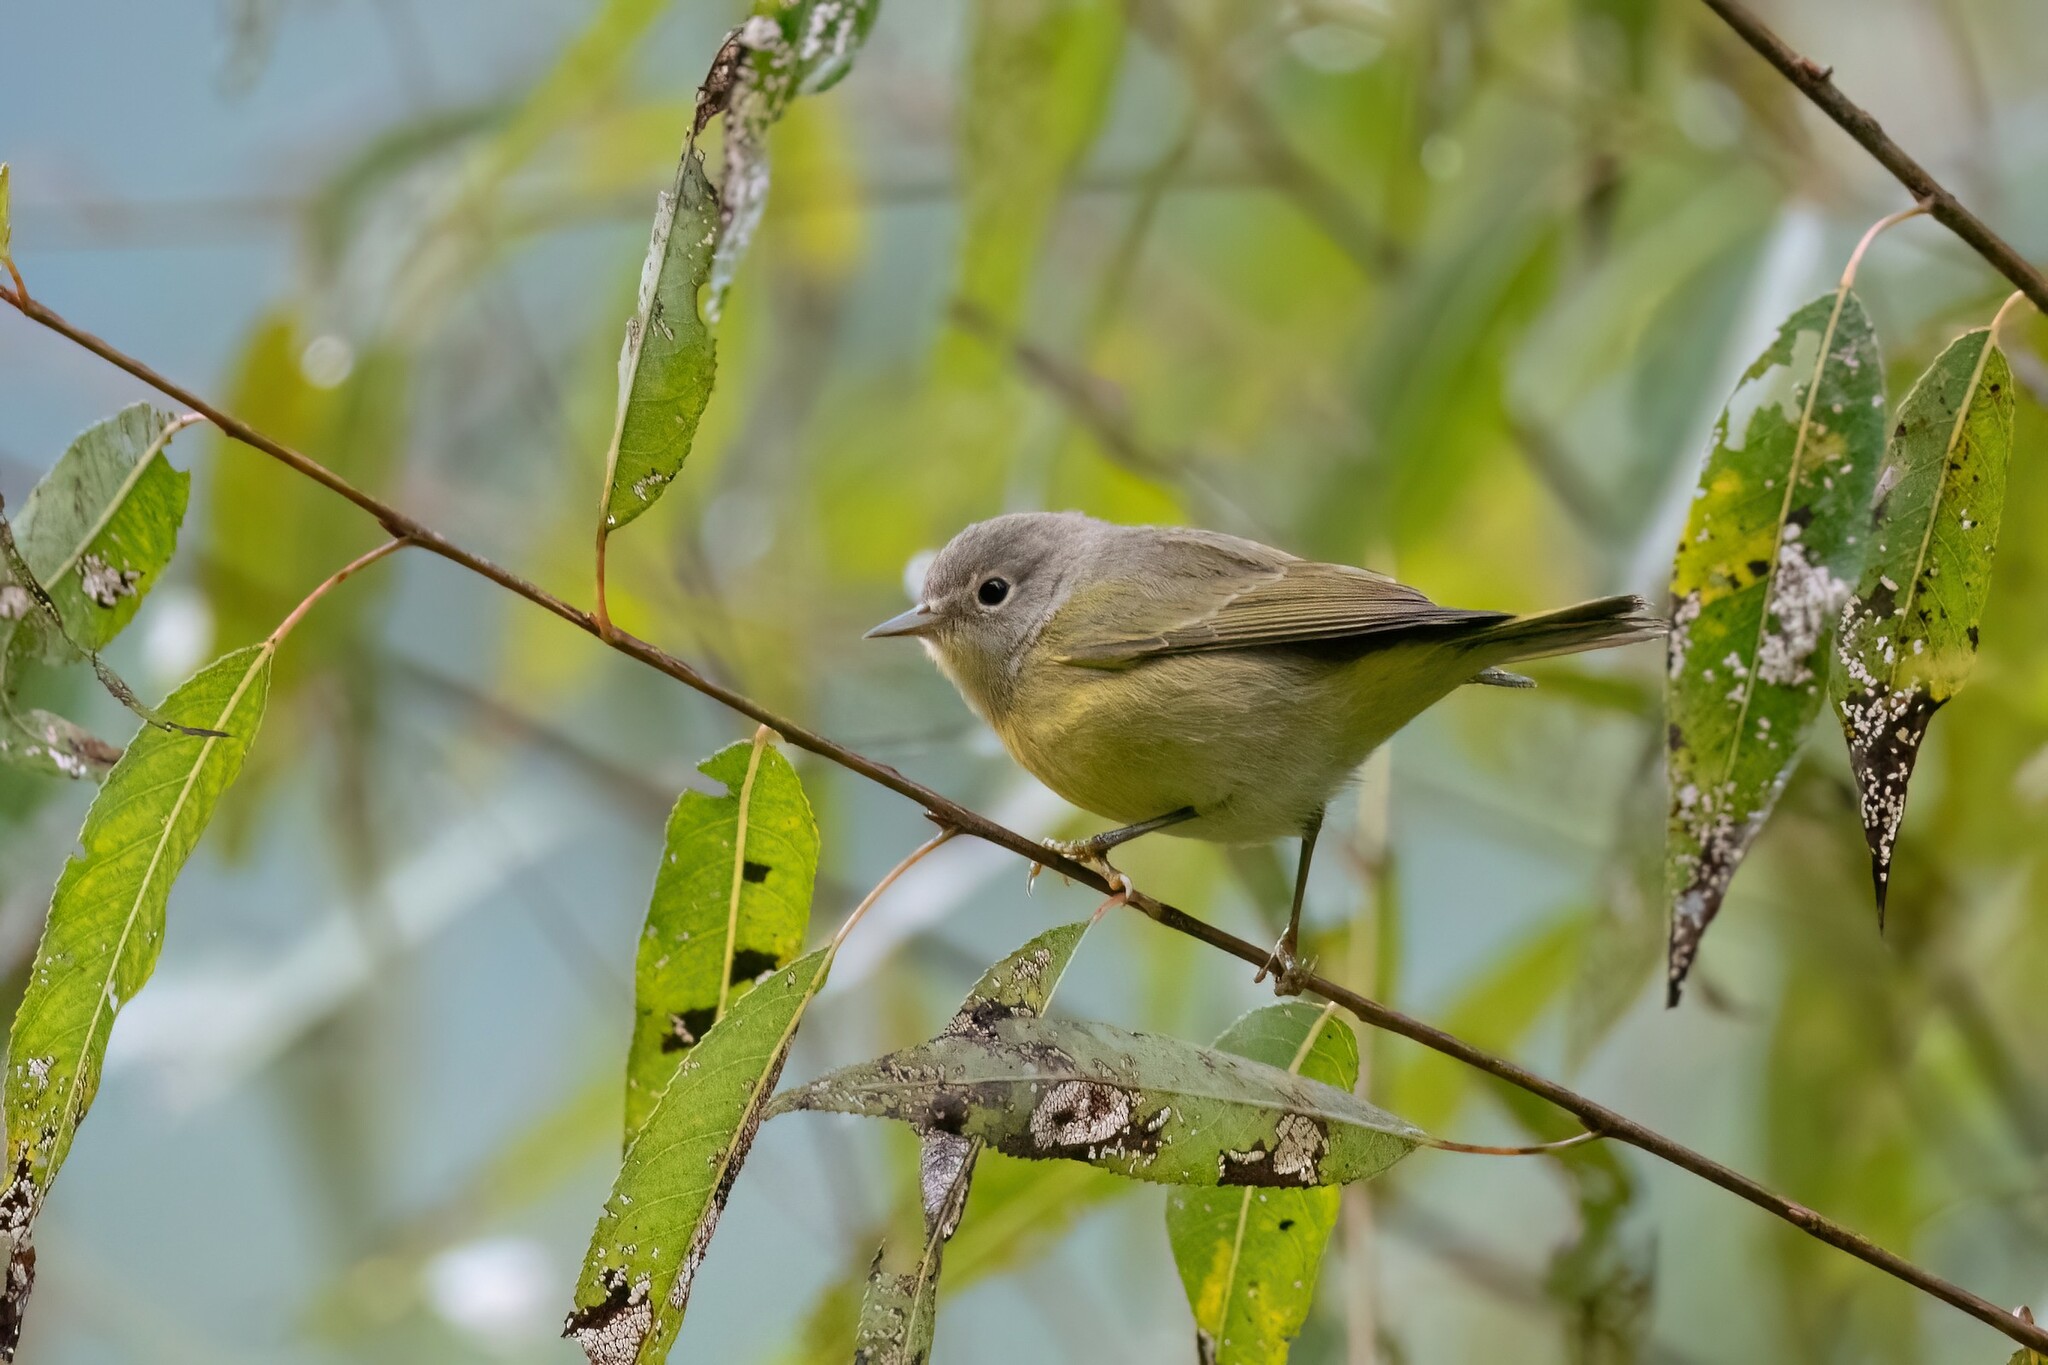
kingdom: Animalia
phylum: Chordata
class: Aves
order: Passeriformes
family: Parulidae
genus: Leiothlypis
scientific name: Leiothlypis ruficapilla
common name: Nashville warbler
